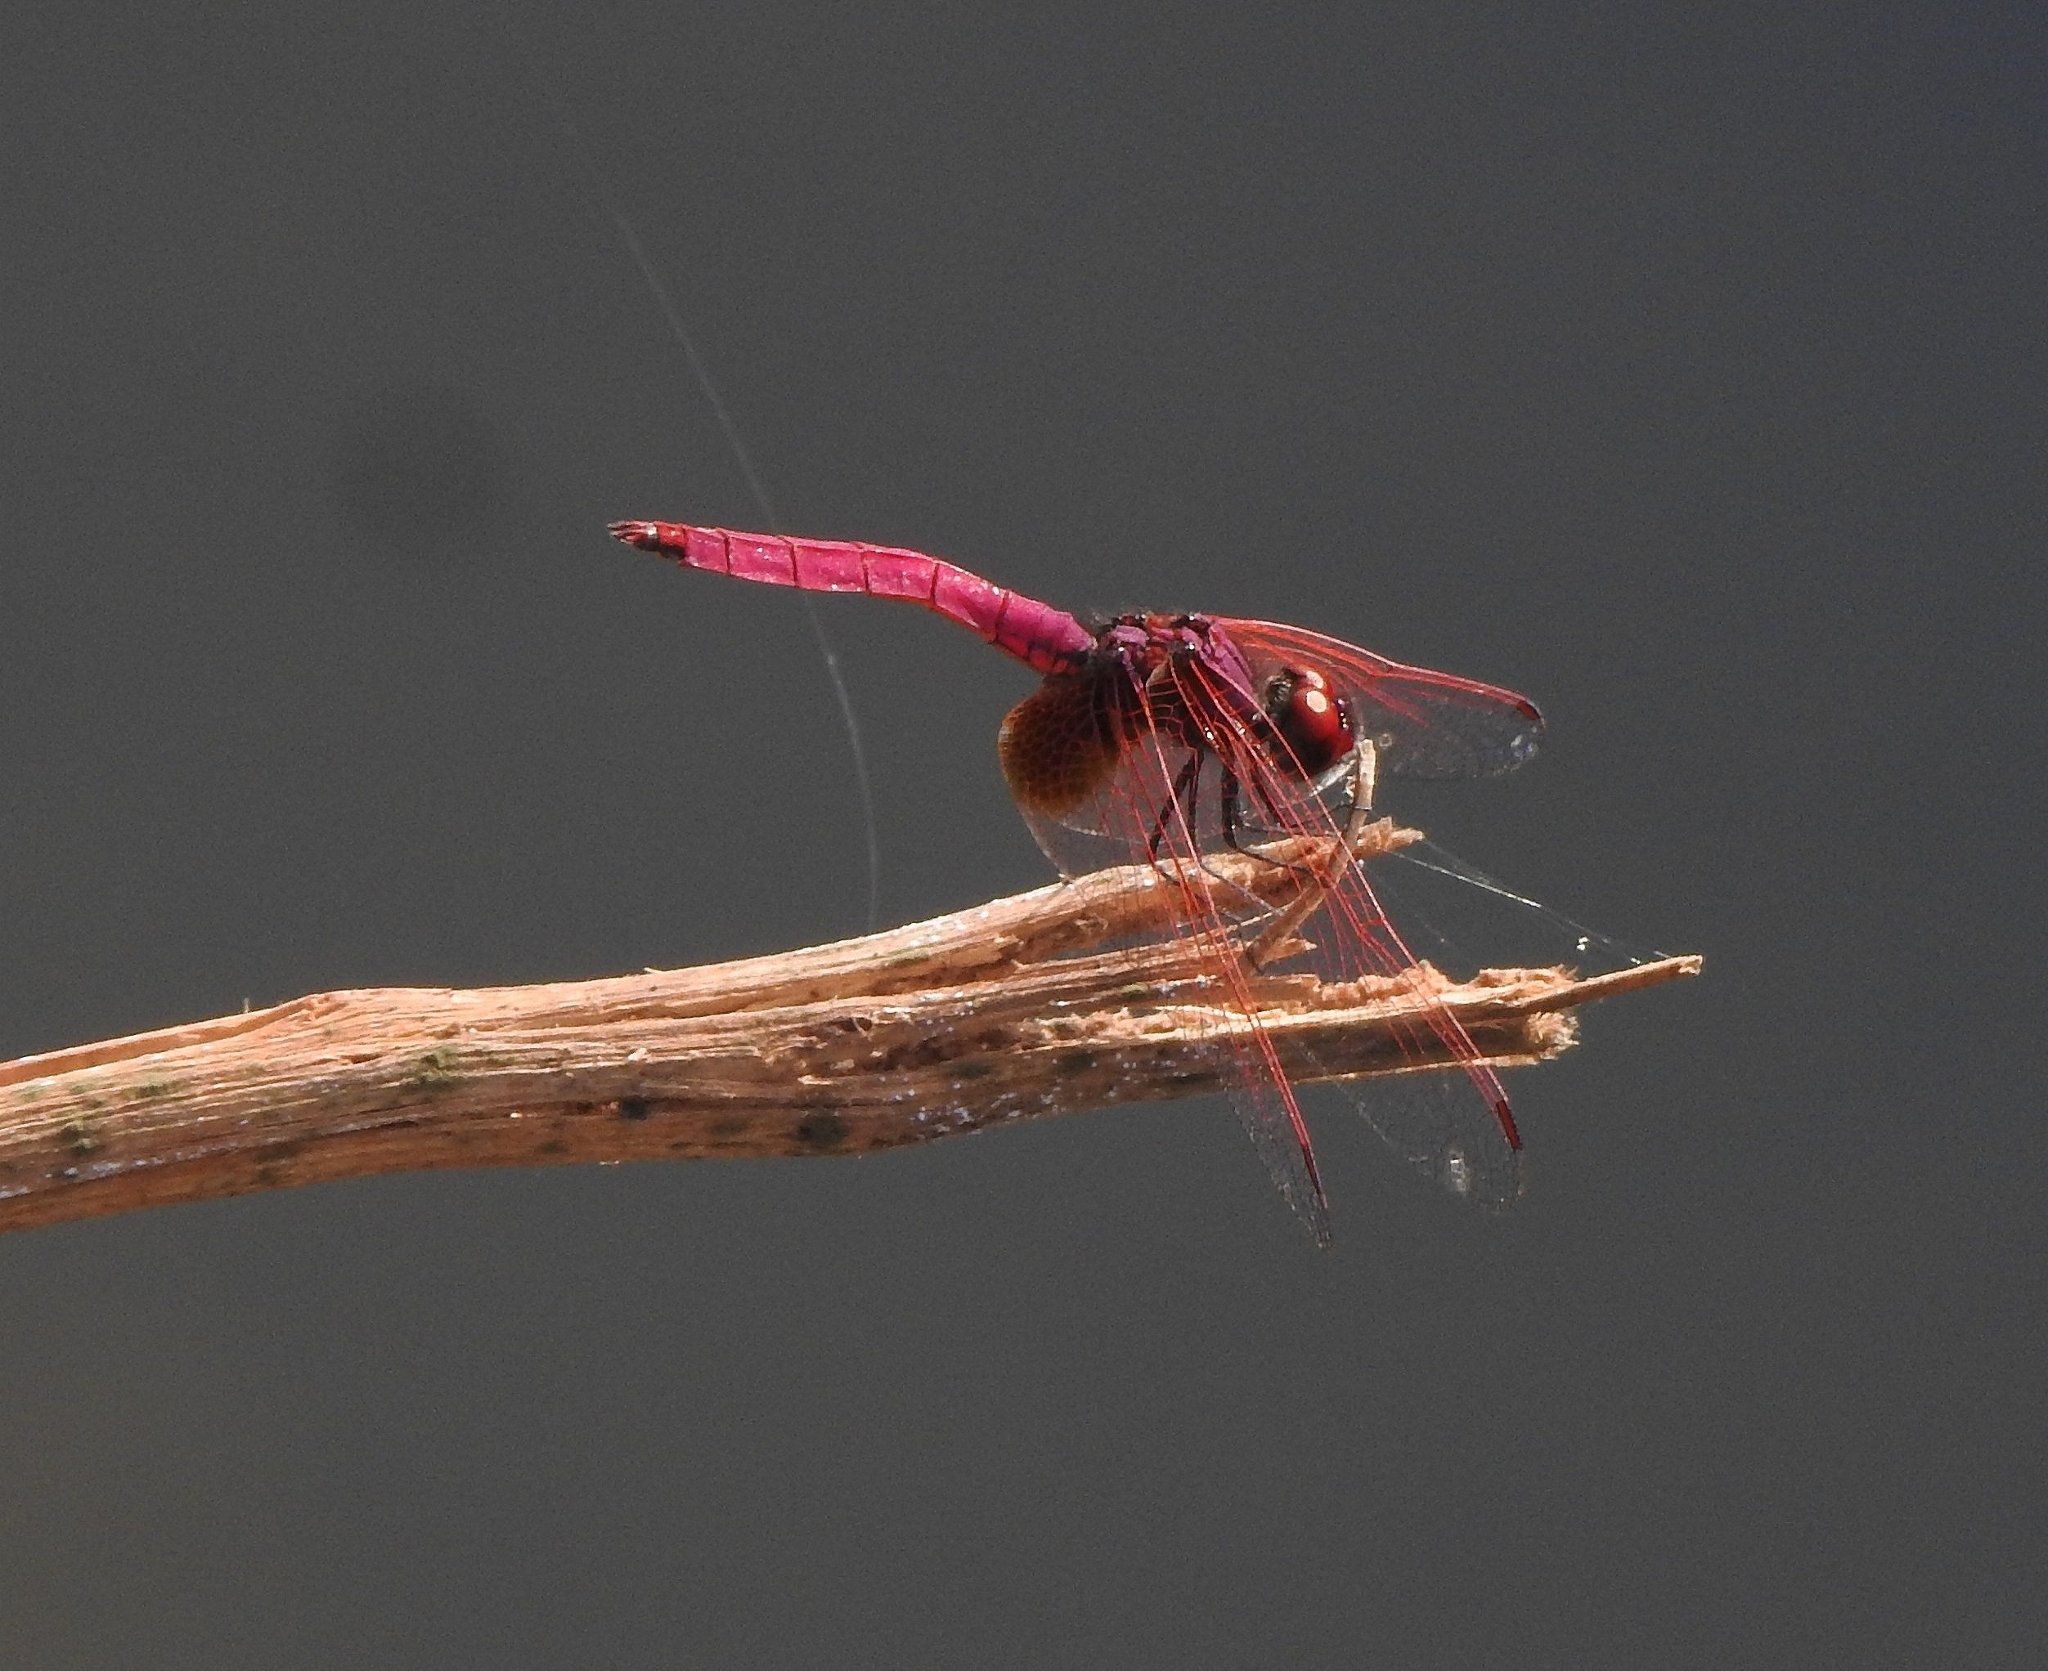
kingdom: Animalia
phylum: Arthropoda
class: Insecta
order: Odonata
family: Libellulidae
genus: Trithemis
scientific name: Trithemis aurora
